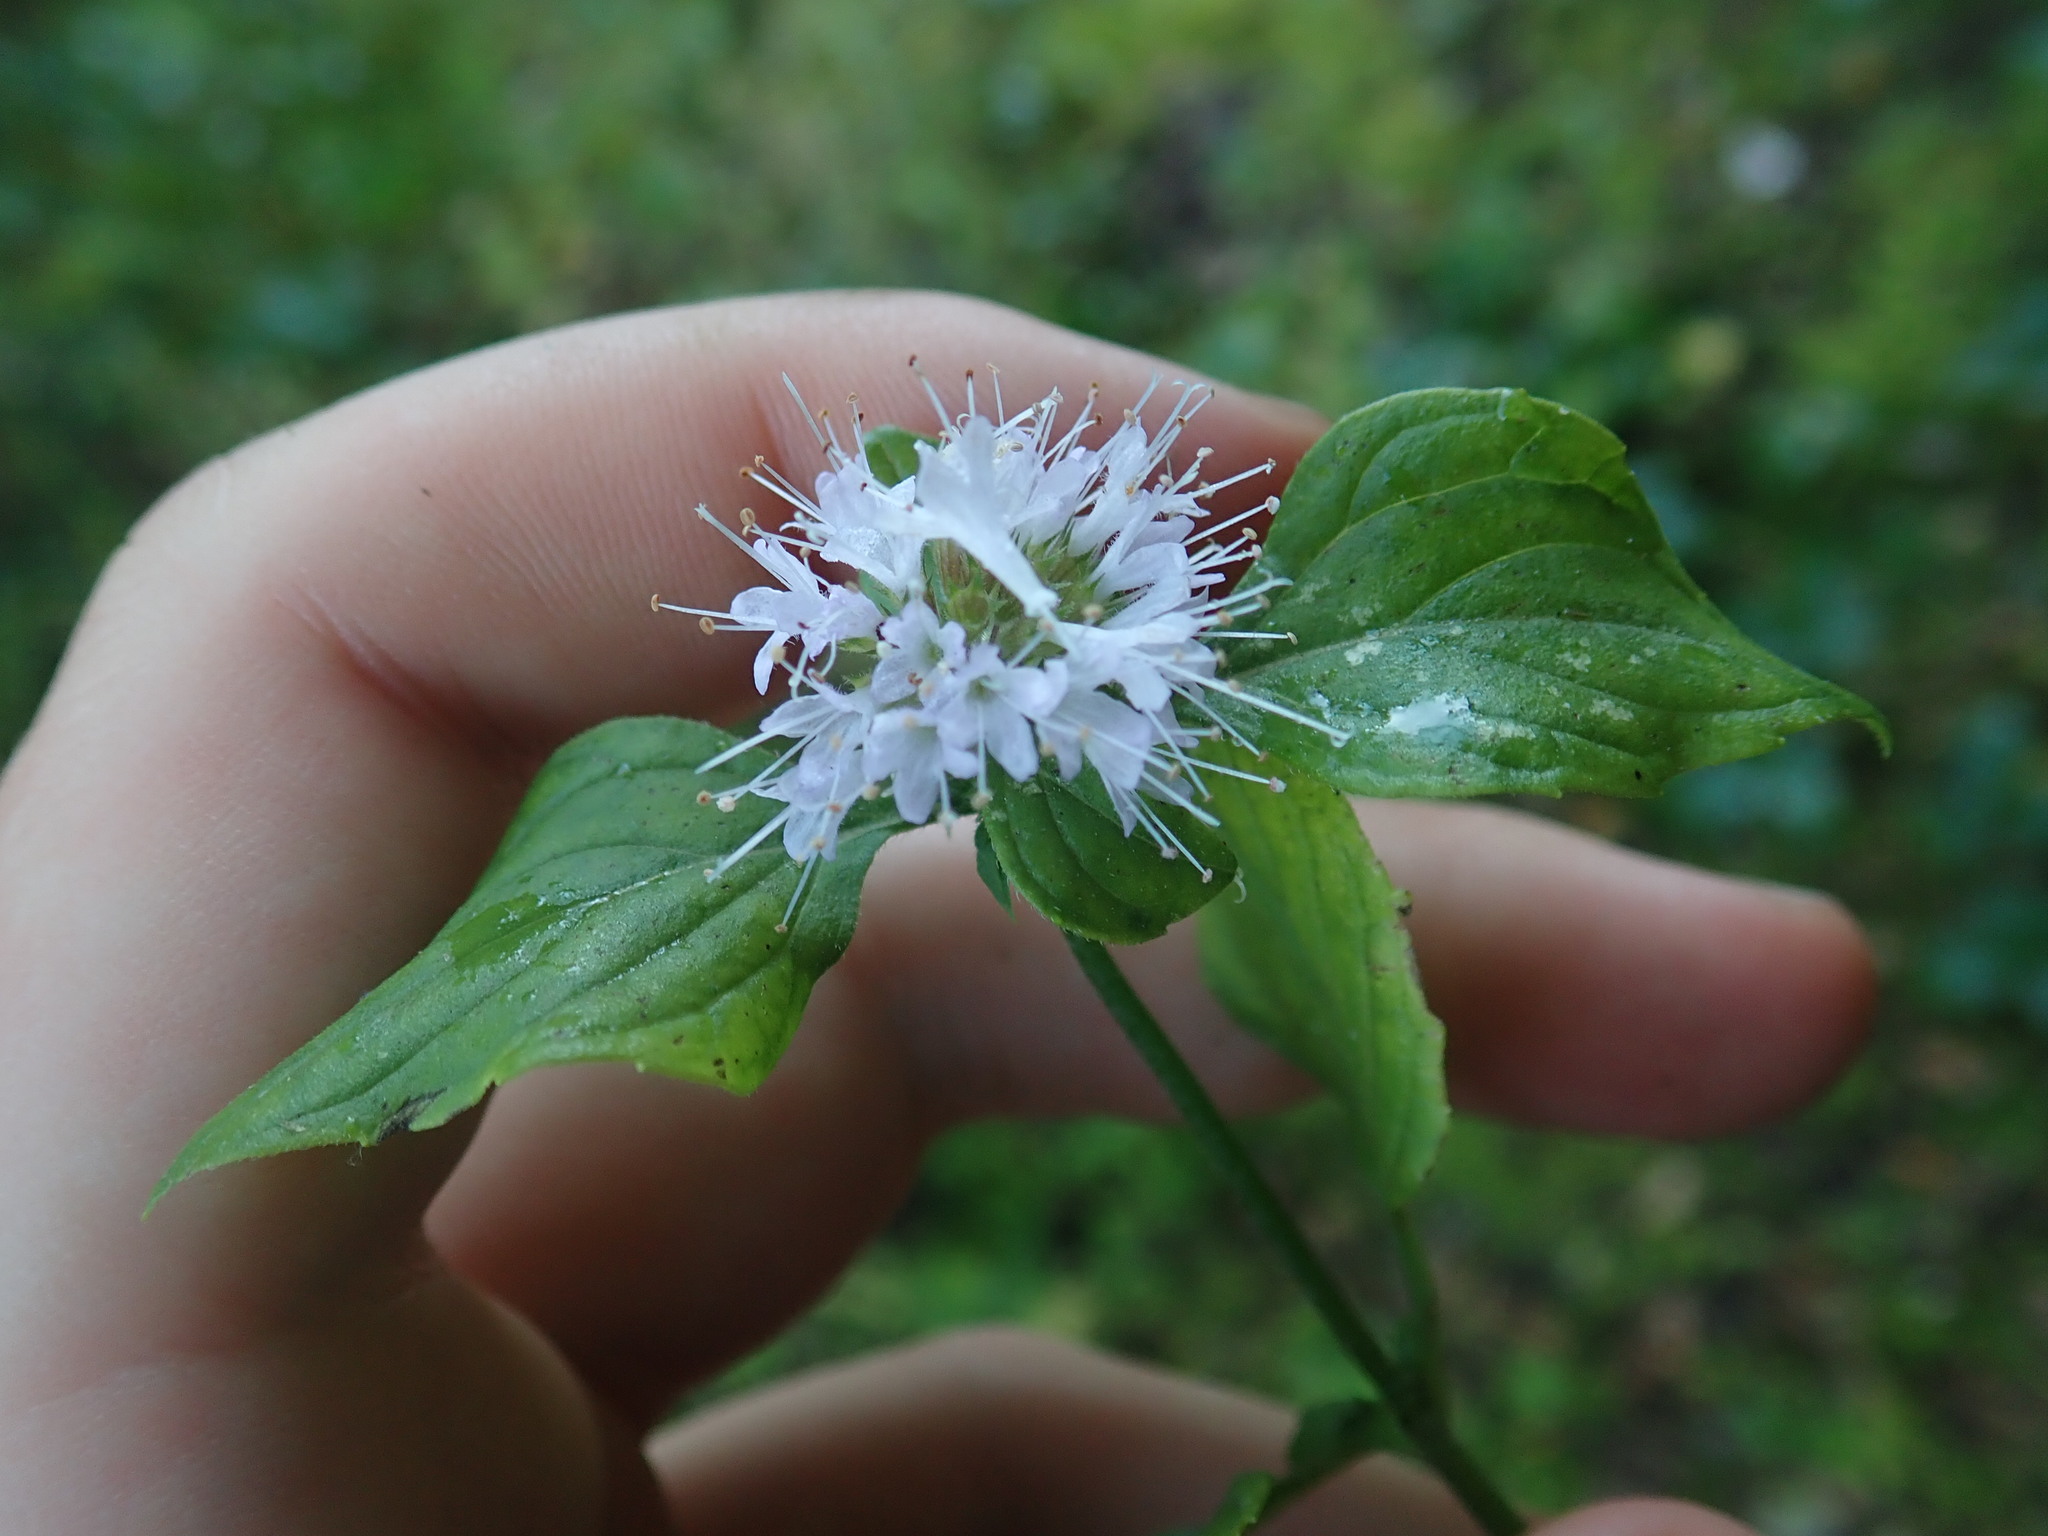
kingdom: Plantae
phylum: Tracheophyta
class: Magnoliopsida
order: Lamiales
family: Lamiaceae
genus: Mentha
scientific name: Mentha aquatica
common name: Water mint
